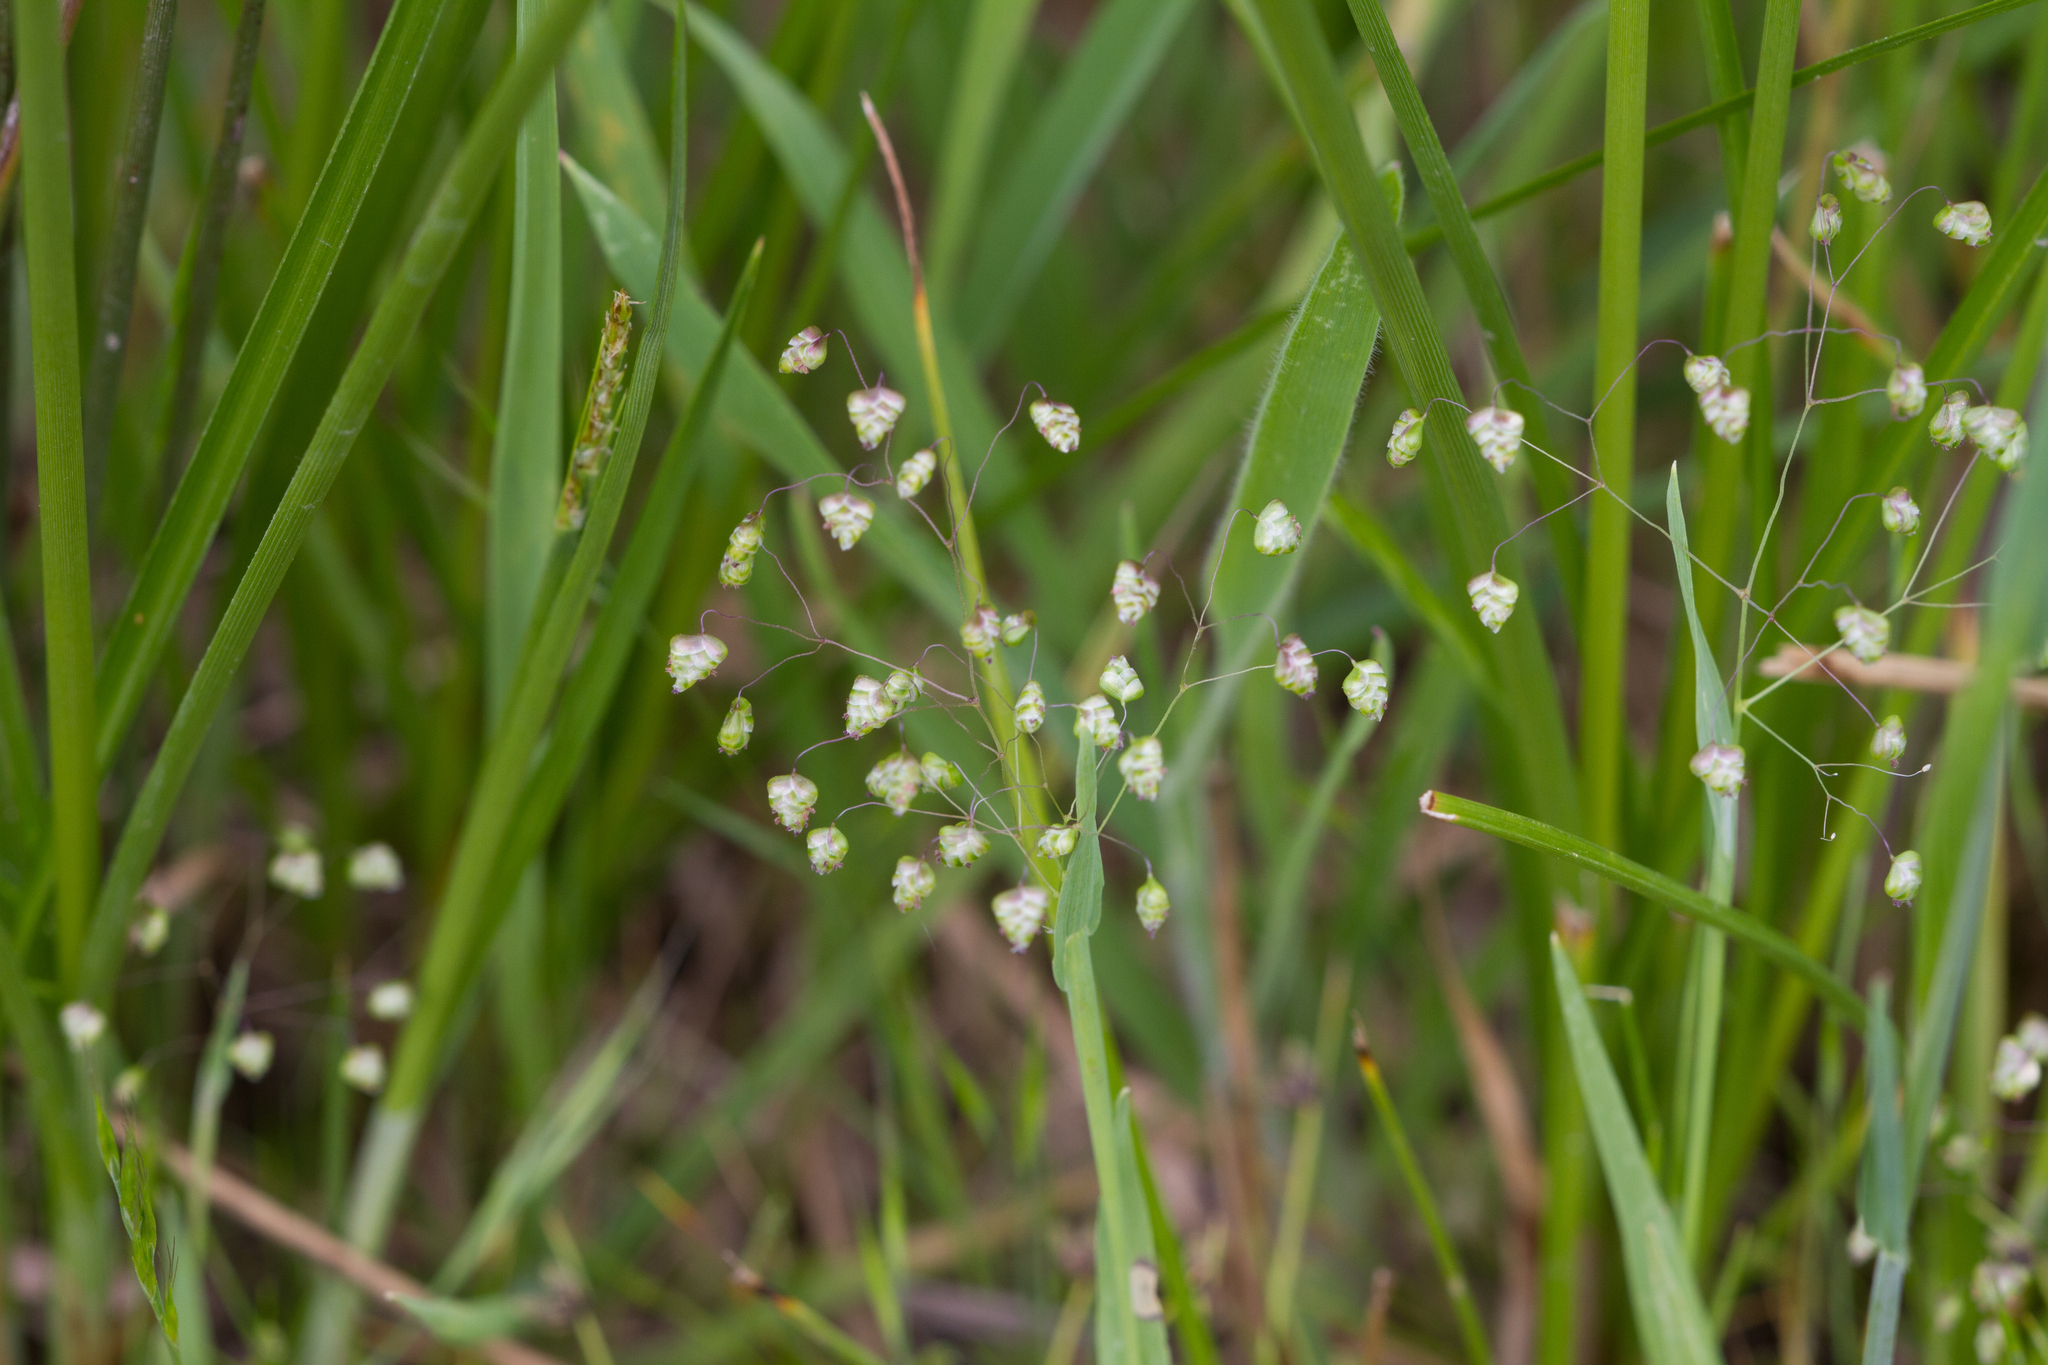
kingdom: Plantae
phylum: Tracheophyta
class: Liliopsida
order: Poales
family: Poaceae
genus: Briza
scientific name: Briza minor
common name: Lesser quaking-grass
